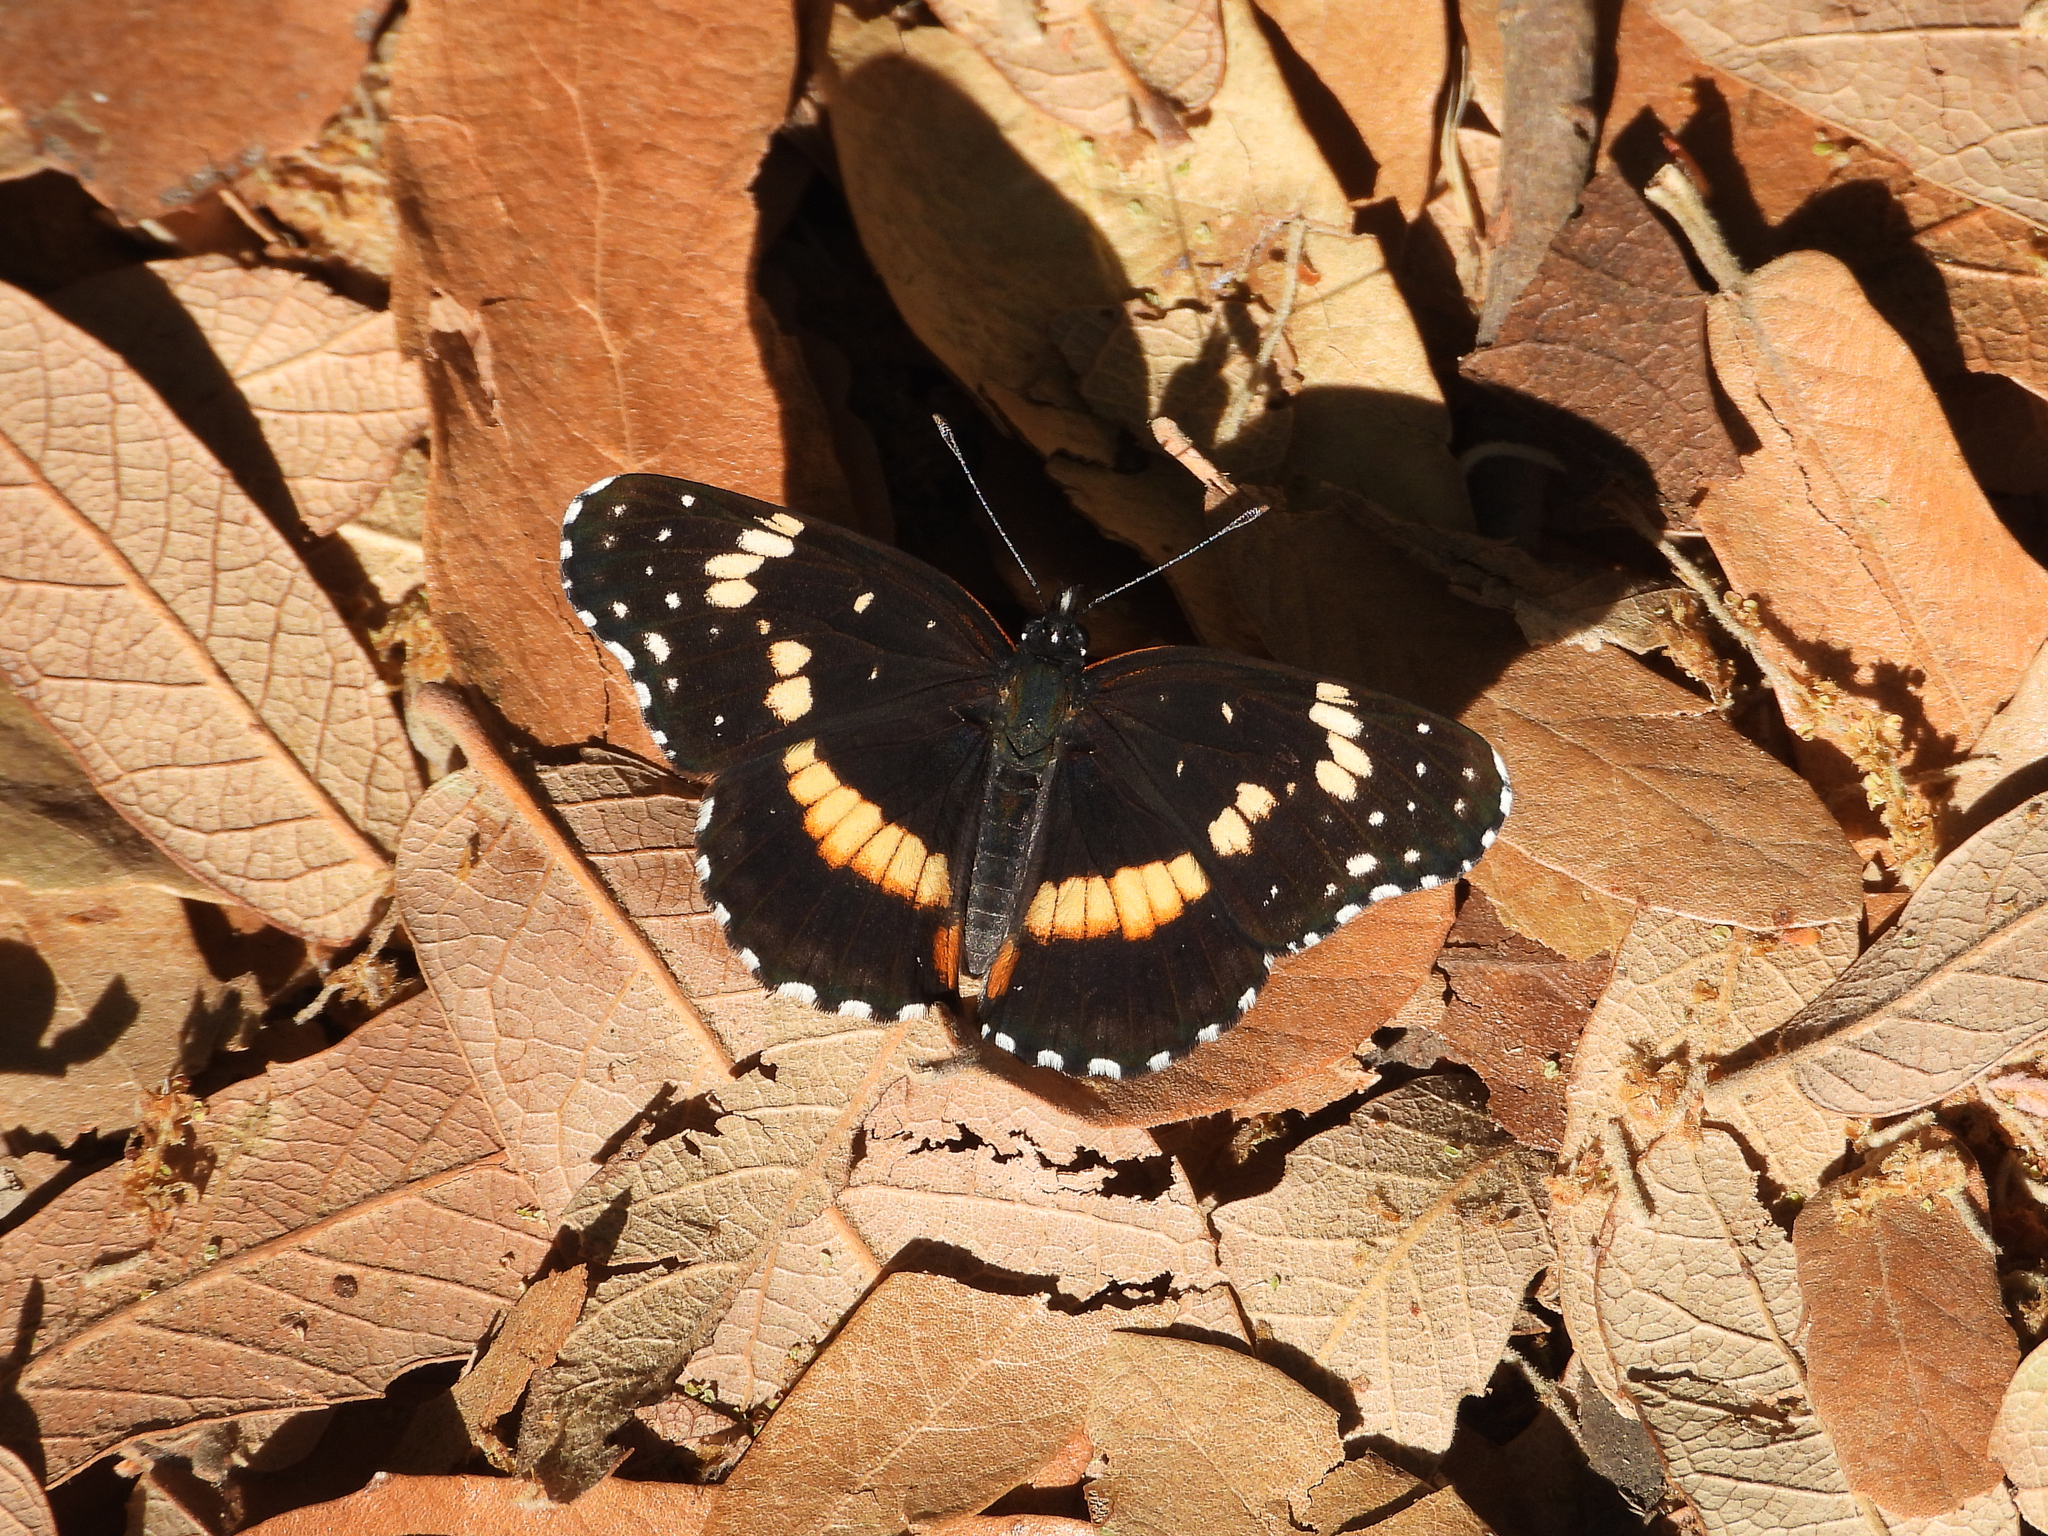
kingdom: Animalia
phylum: Arthropoda
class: Insecta
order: Lepidoptera
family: Nymphalidae
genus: Chlosyne
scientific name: Chlosyne lacinia
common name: Bordered patch
